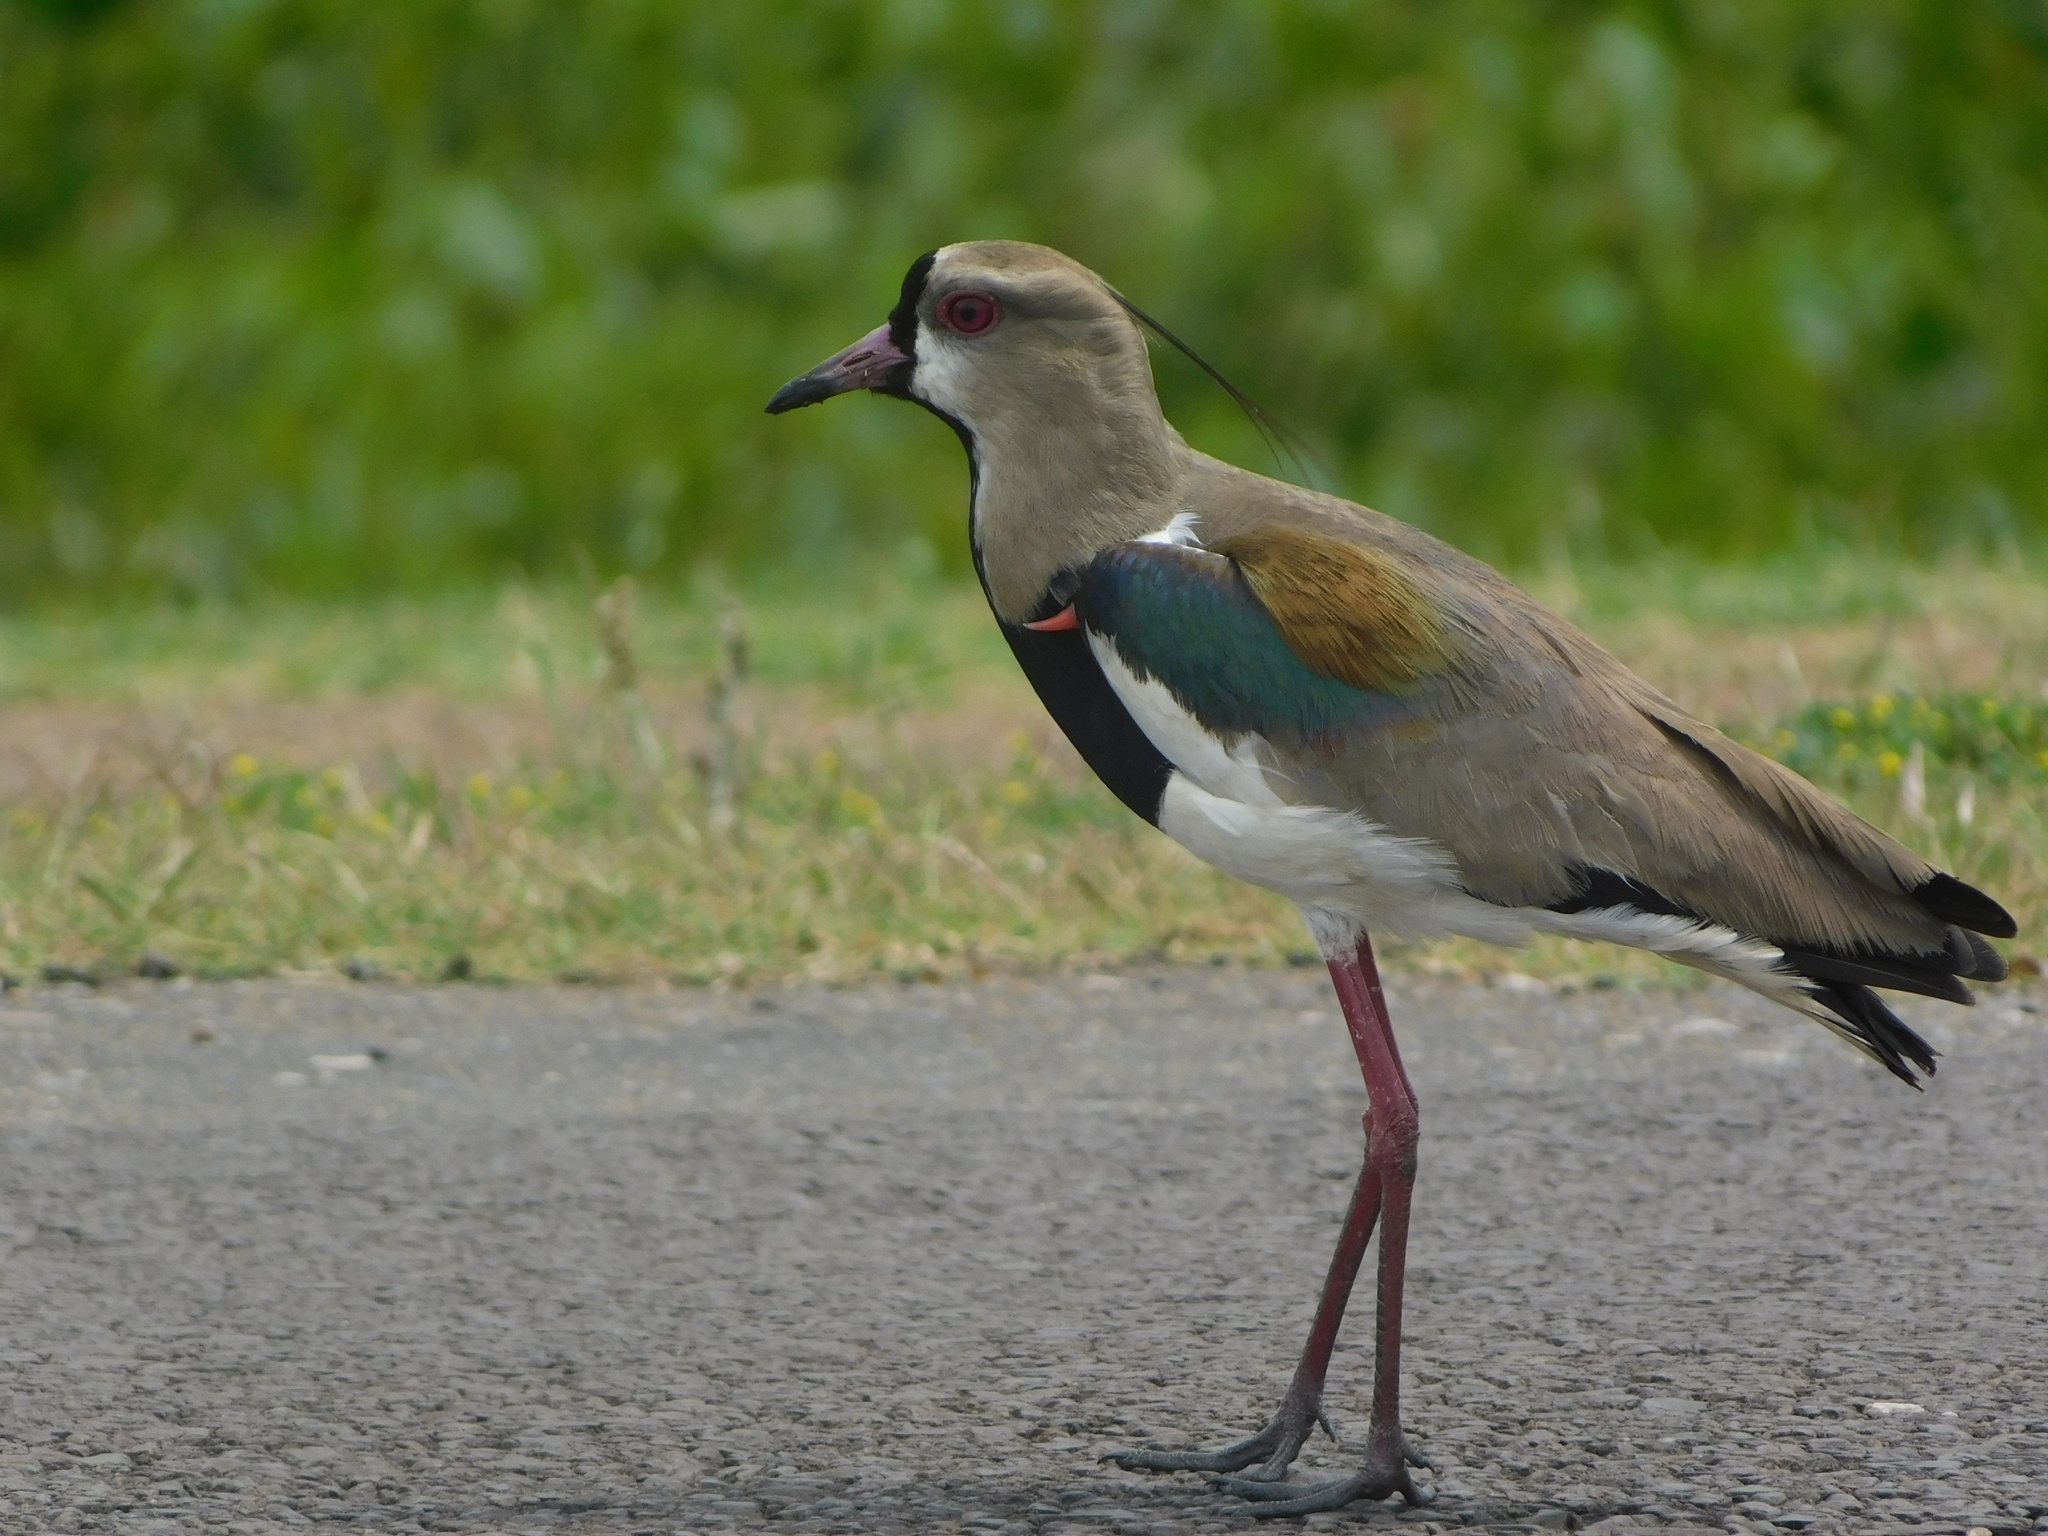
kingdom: Animalia
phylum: Chordata
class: Aves
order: Charadriiformes
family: Charadriidae
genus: Vanellus
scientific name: Vanellus chilensis
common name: Southern lapwing
